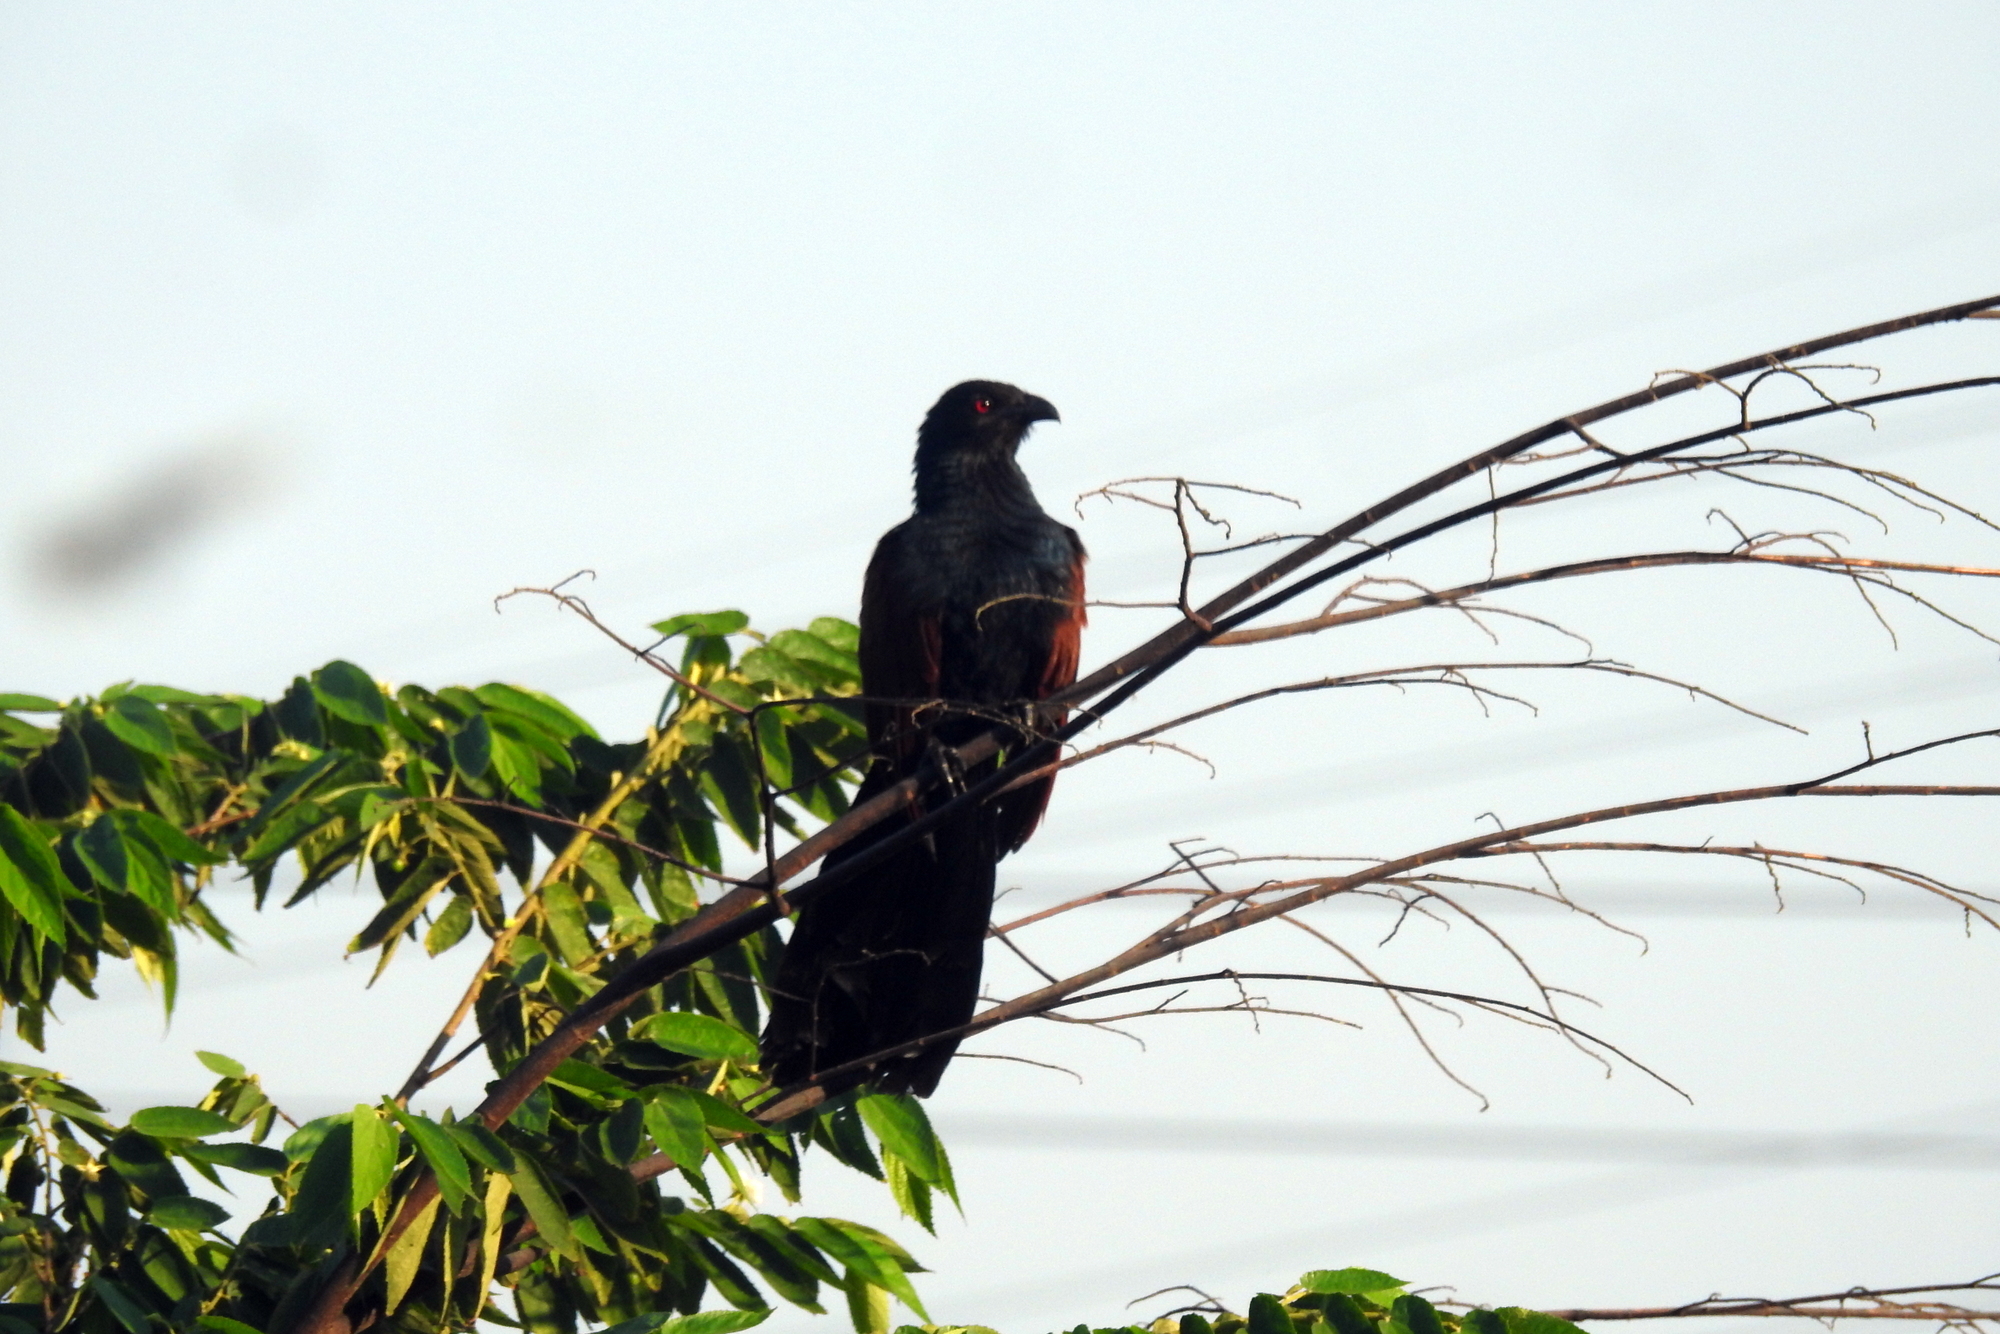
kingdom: Animalia
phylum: Chordata
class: Aves
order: Cuculiformes
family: Cuculidae
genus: Centropus
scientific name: Centropus sinensis
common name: Greater coucal
